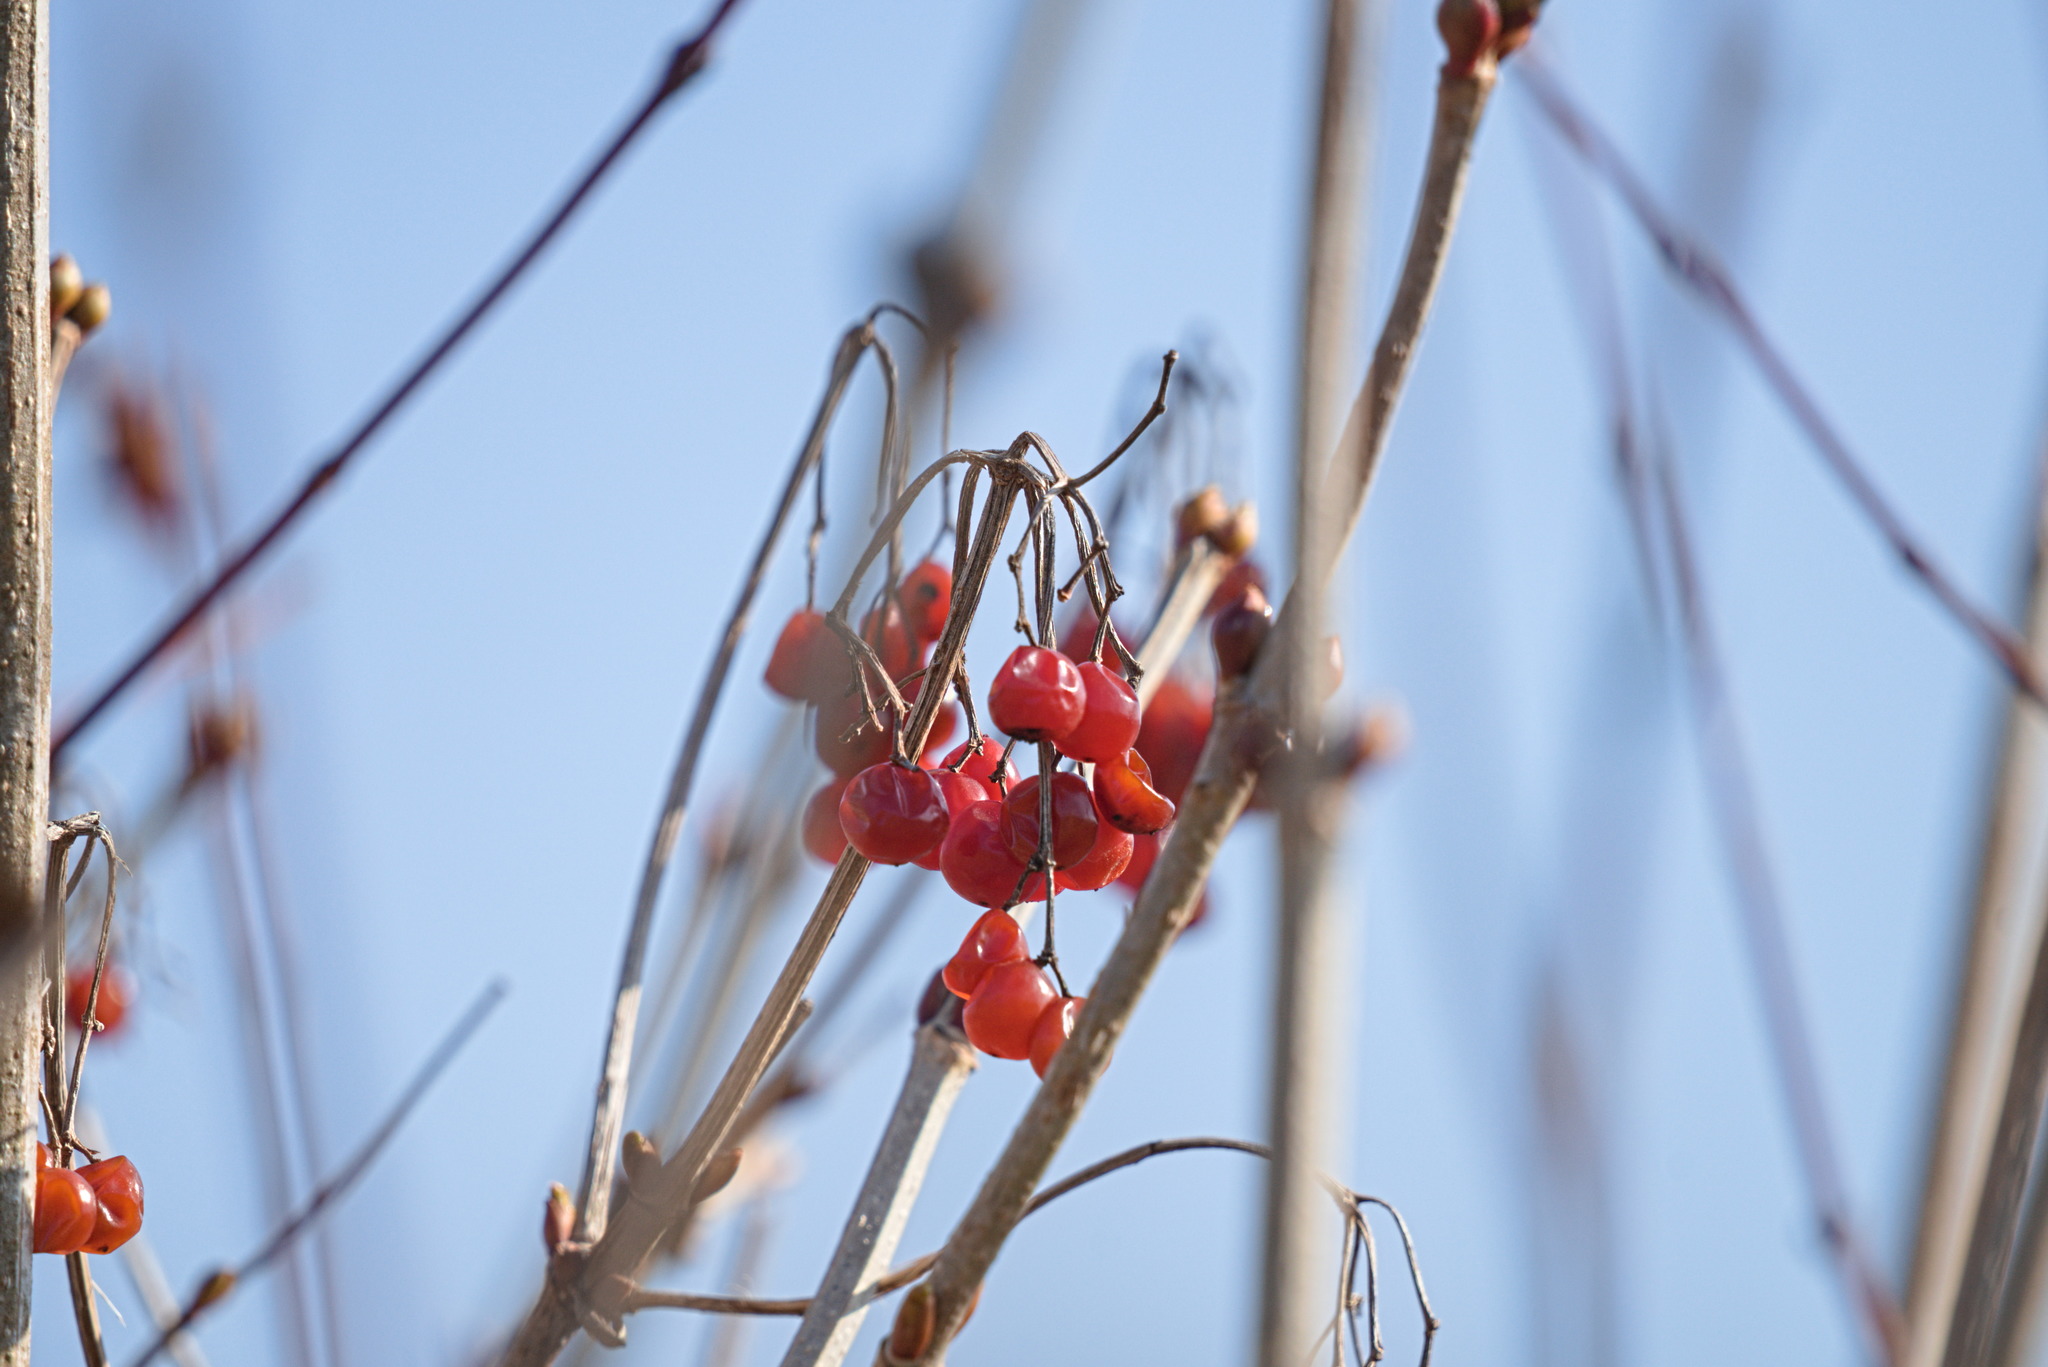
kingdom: Plantae
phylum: Tracheophyta
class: Magnoliopsida
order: Dipsacales
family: Viburnaceae
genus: Viburnum
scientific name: Viburnum opulus
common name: Guelder-rose
